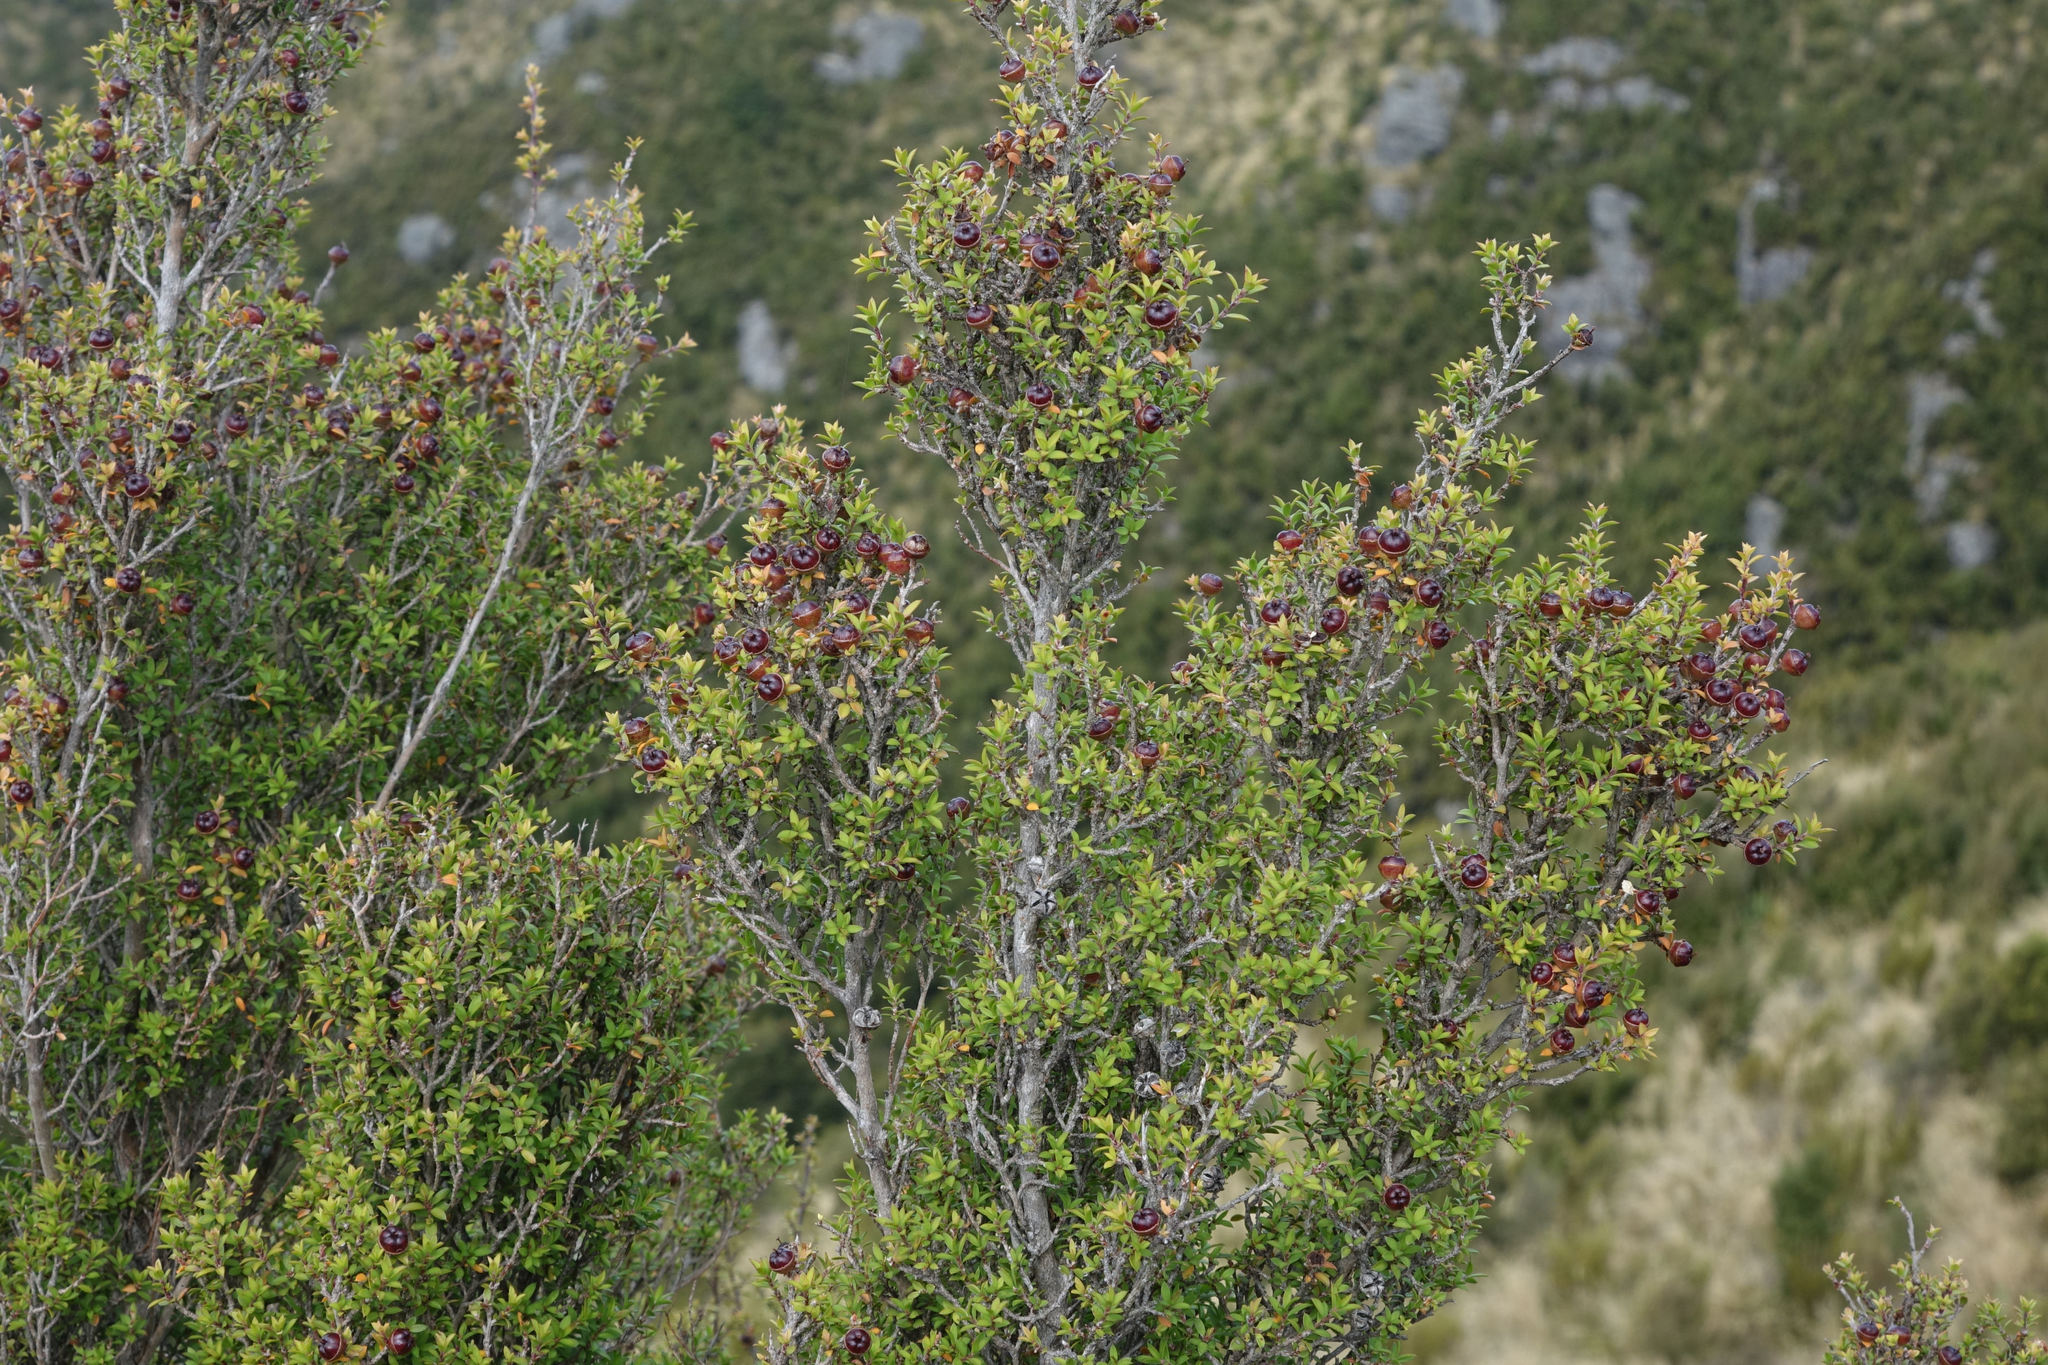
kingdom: Plantae
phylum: Tracheophyta
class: Magnoliopsida
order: Myrtales
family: Myrtaceae
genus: Leptospermum
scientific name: Leptospermum scoparium
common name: Broom tea-tree
